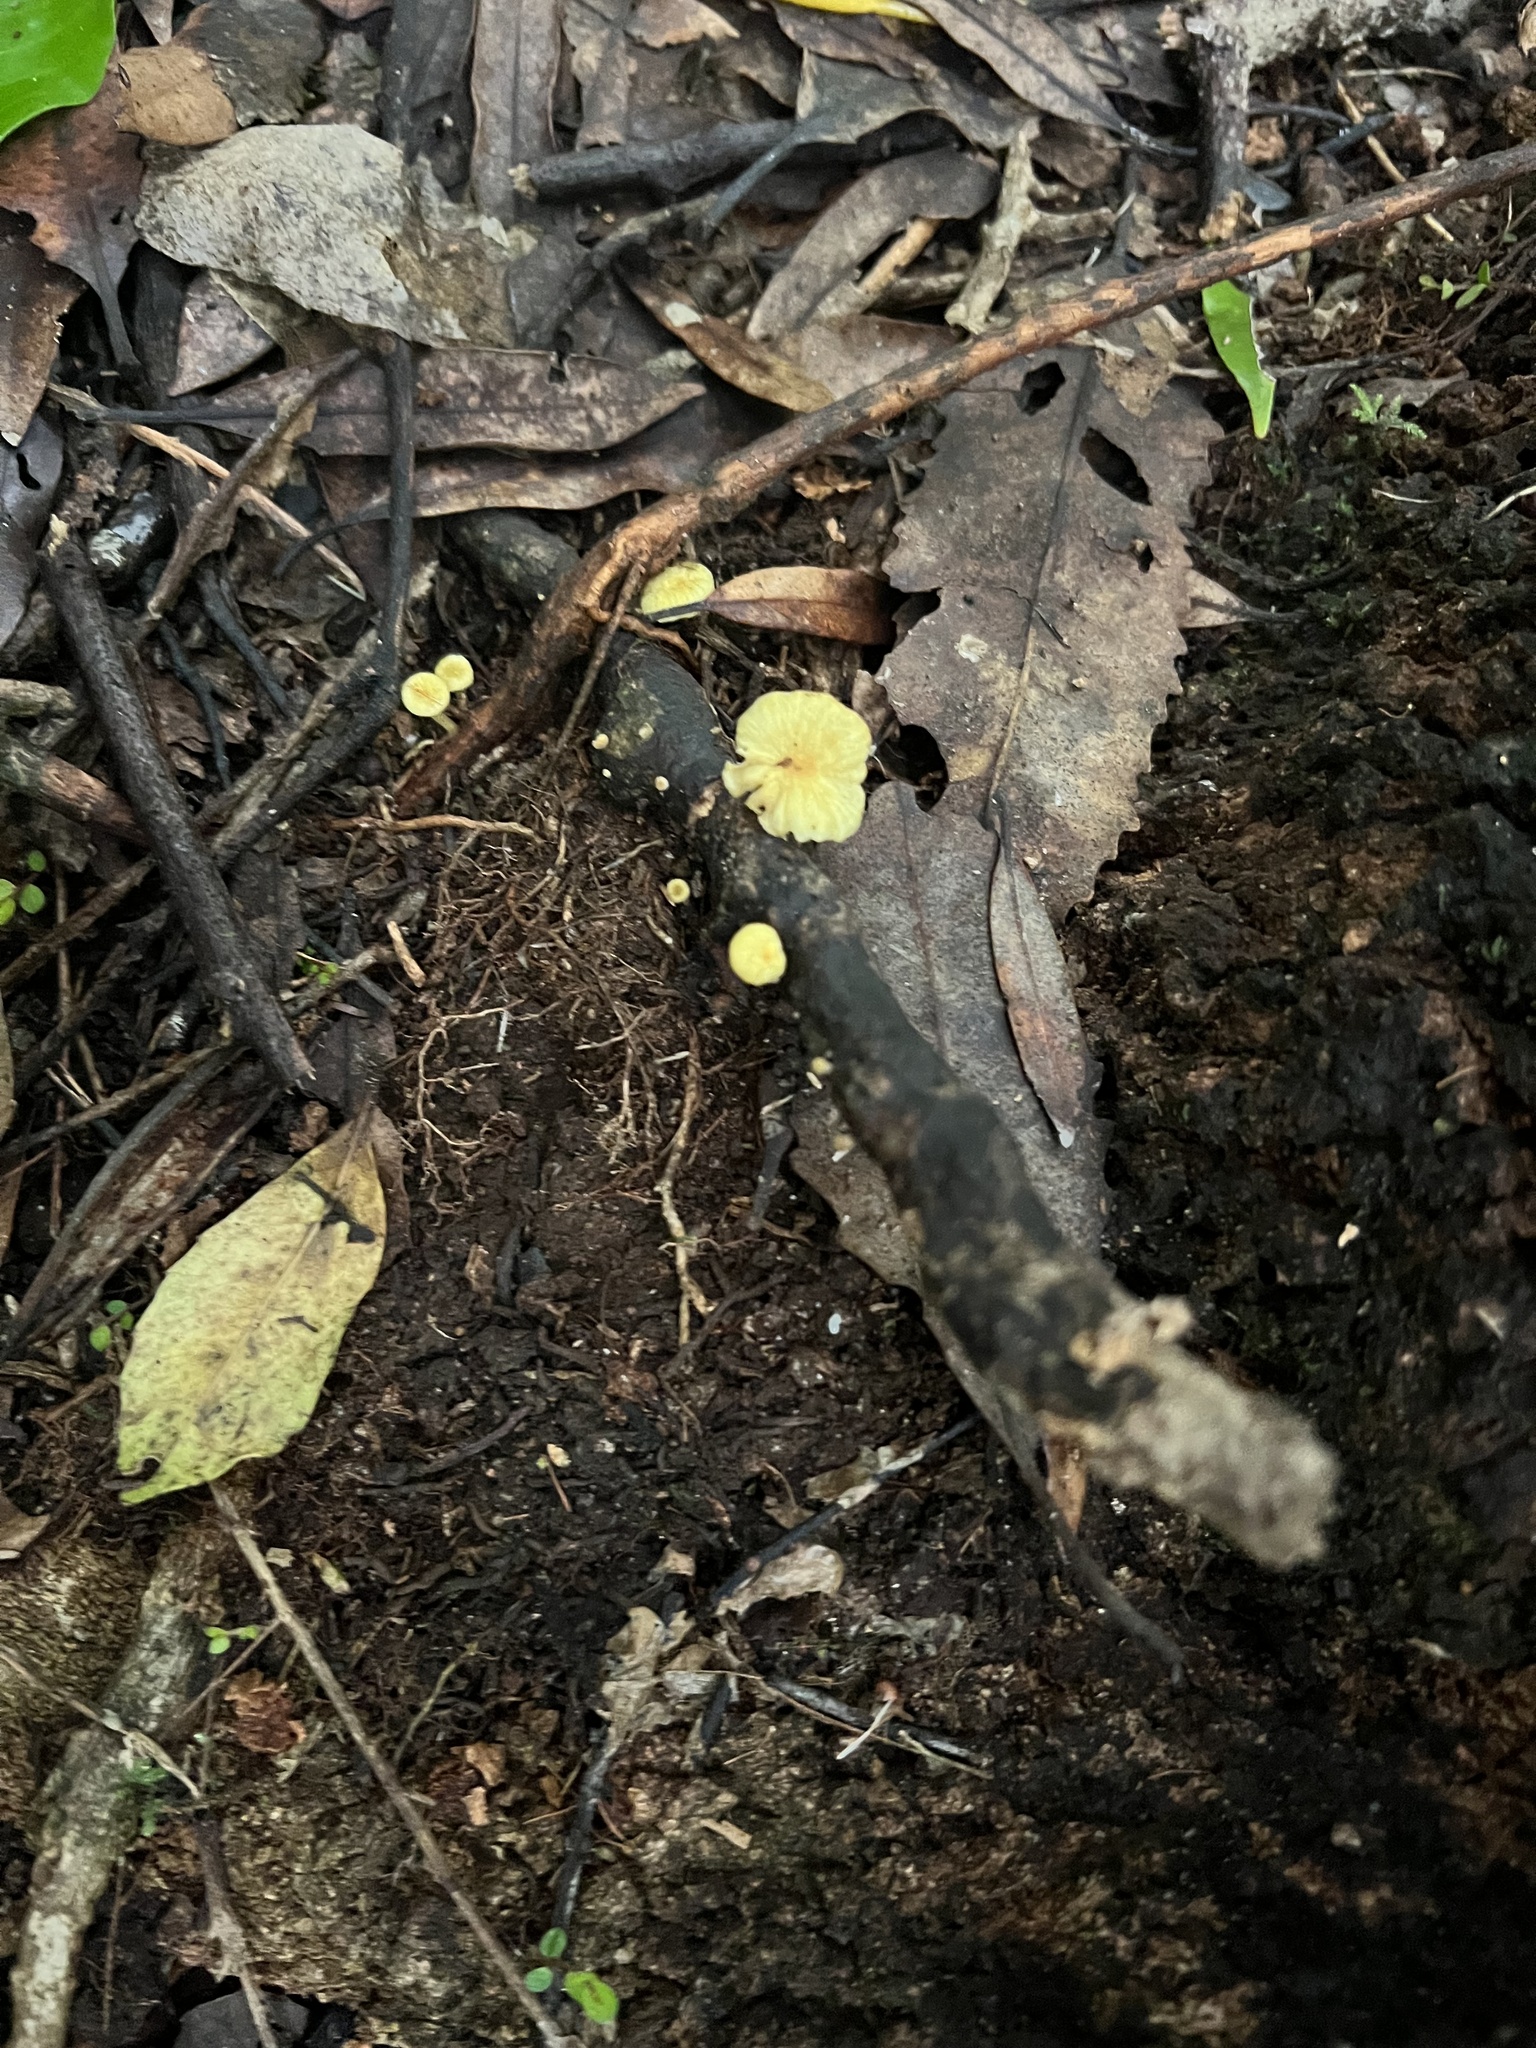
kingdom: Fungi
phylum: Basidiomycota
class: Agaricomycetes
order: Agaricales
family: Hygrophoraceae
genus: Gloioxanthomyces
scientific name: Gloioxanthomyces
